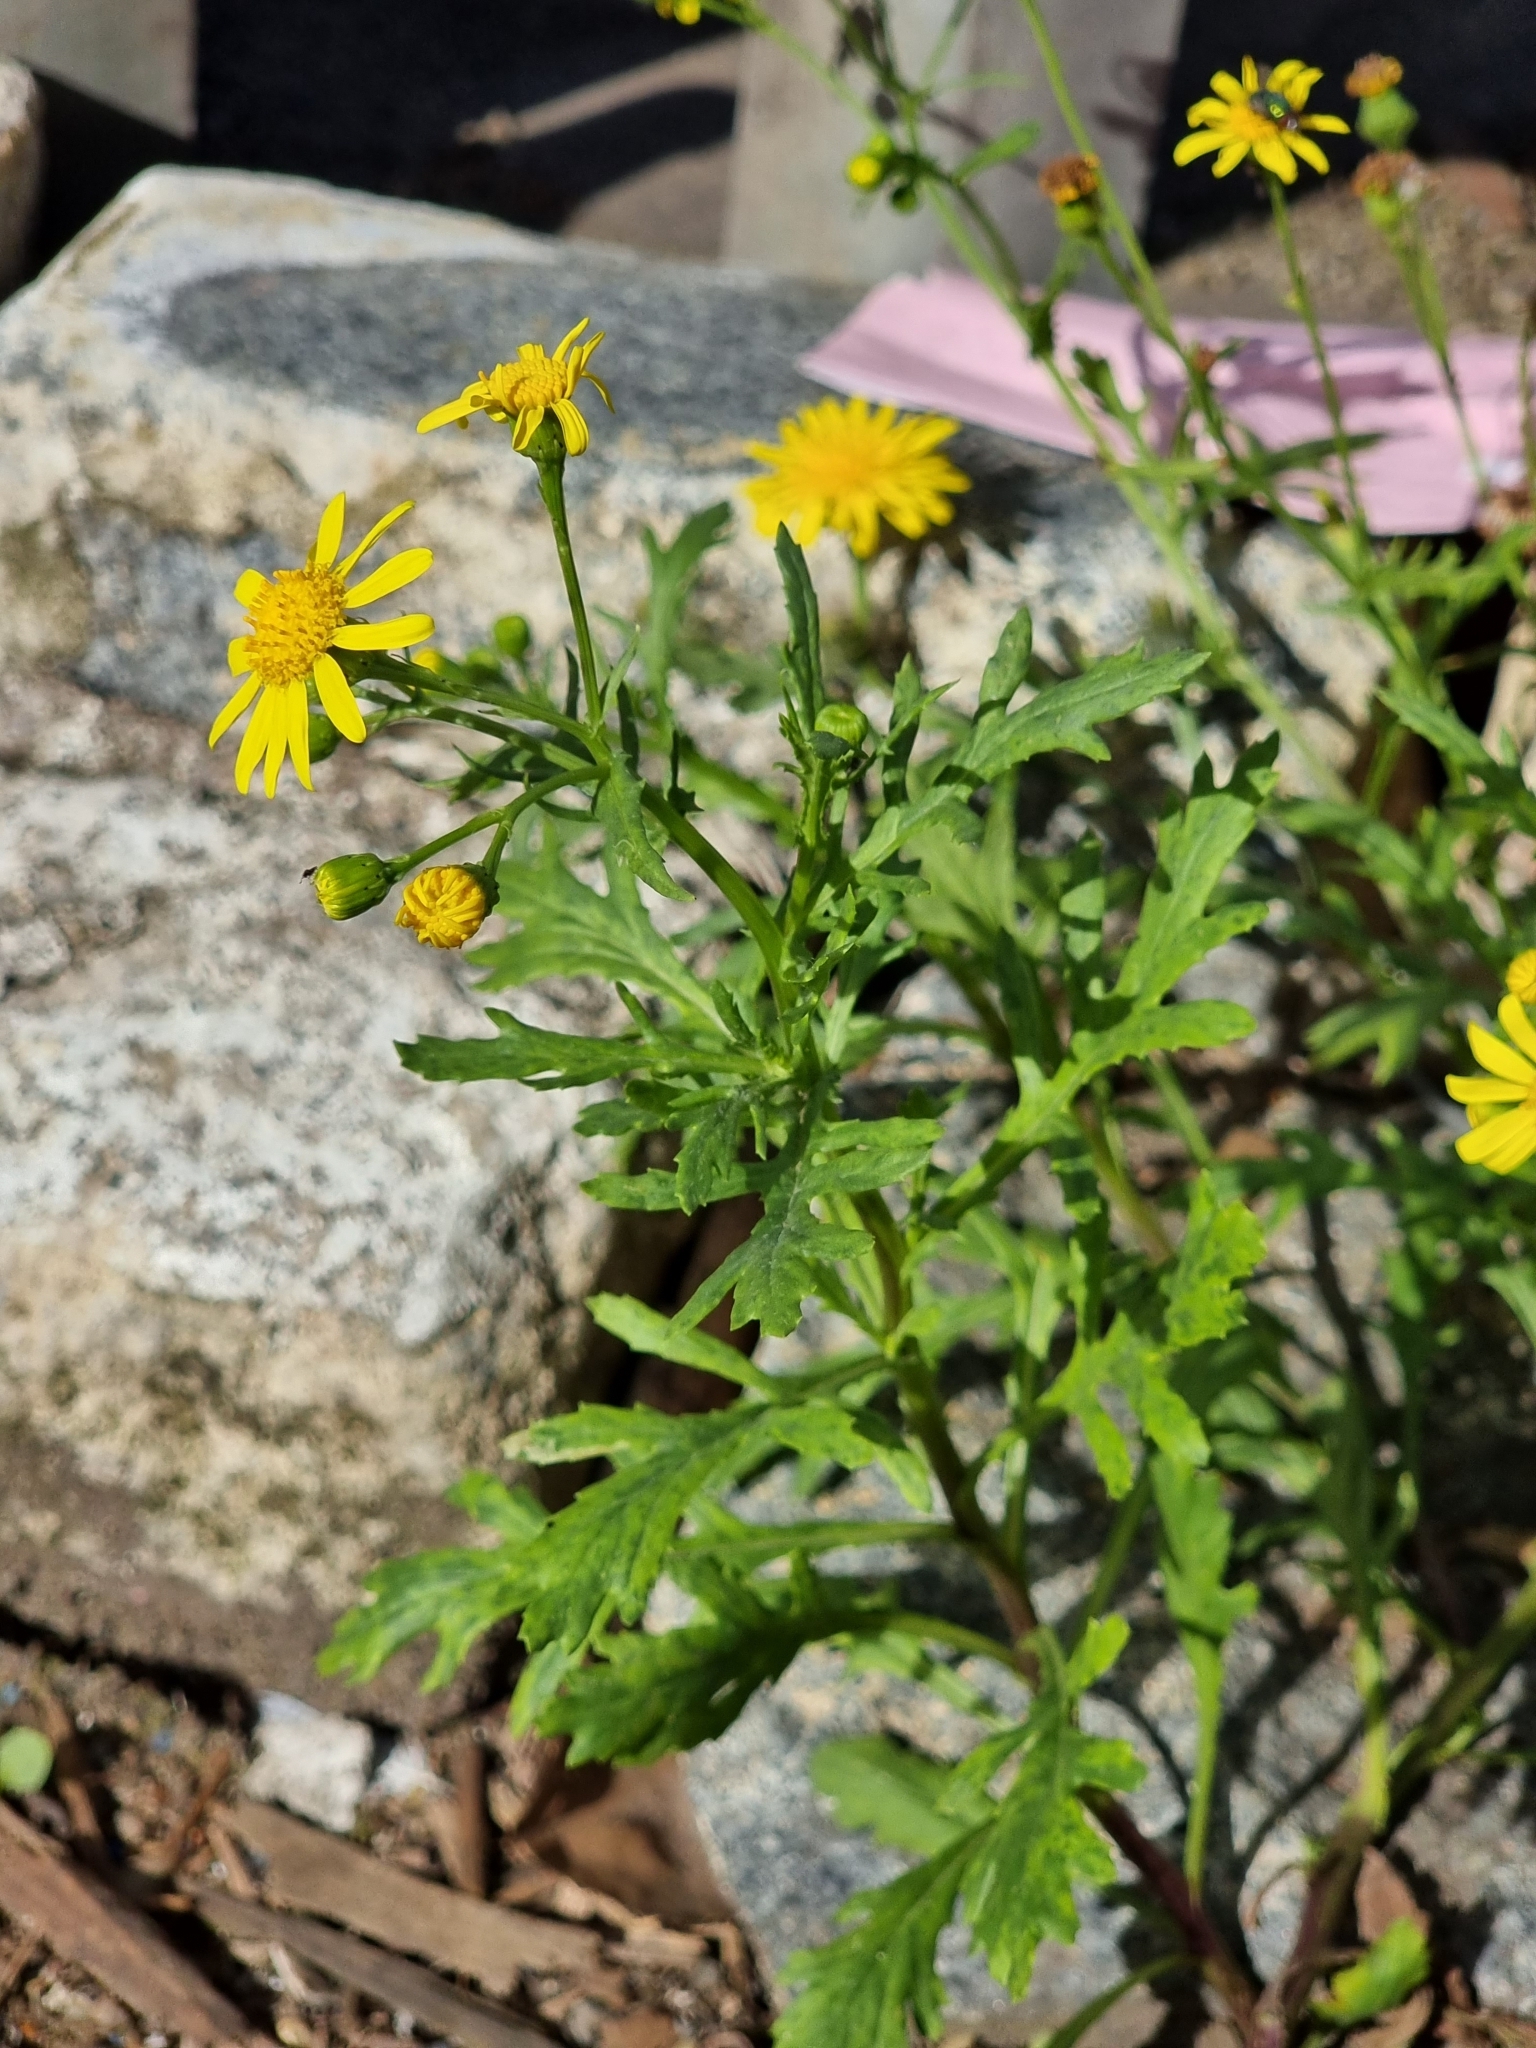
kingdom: Plantae
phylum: Tracheophyta
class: Magnoliopsida
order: Asterales
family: Asteraceae
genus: Senecio
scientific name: Senecio squalidus
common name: Oxford ragwort
